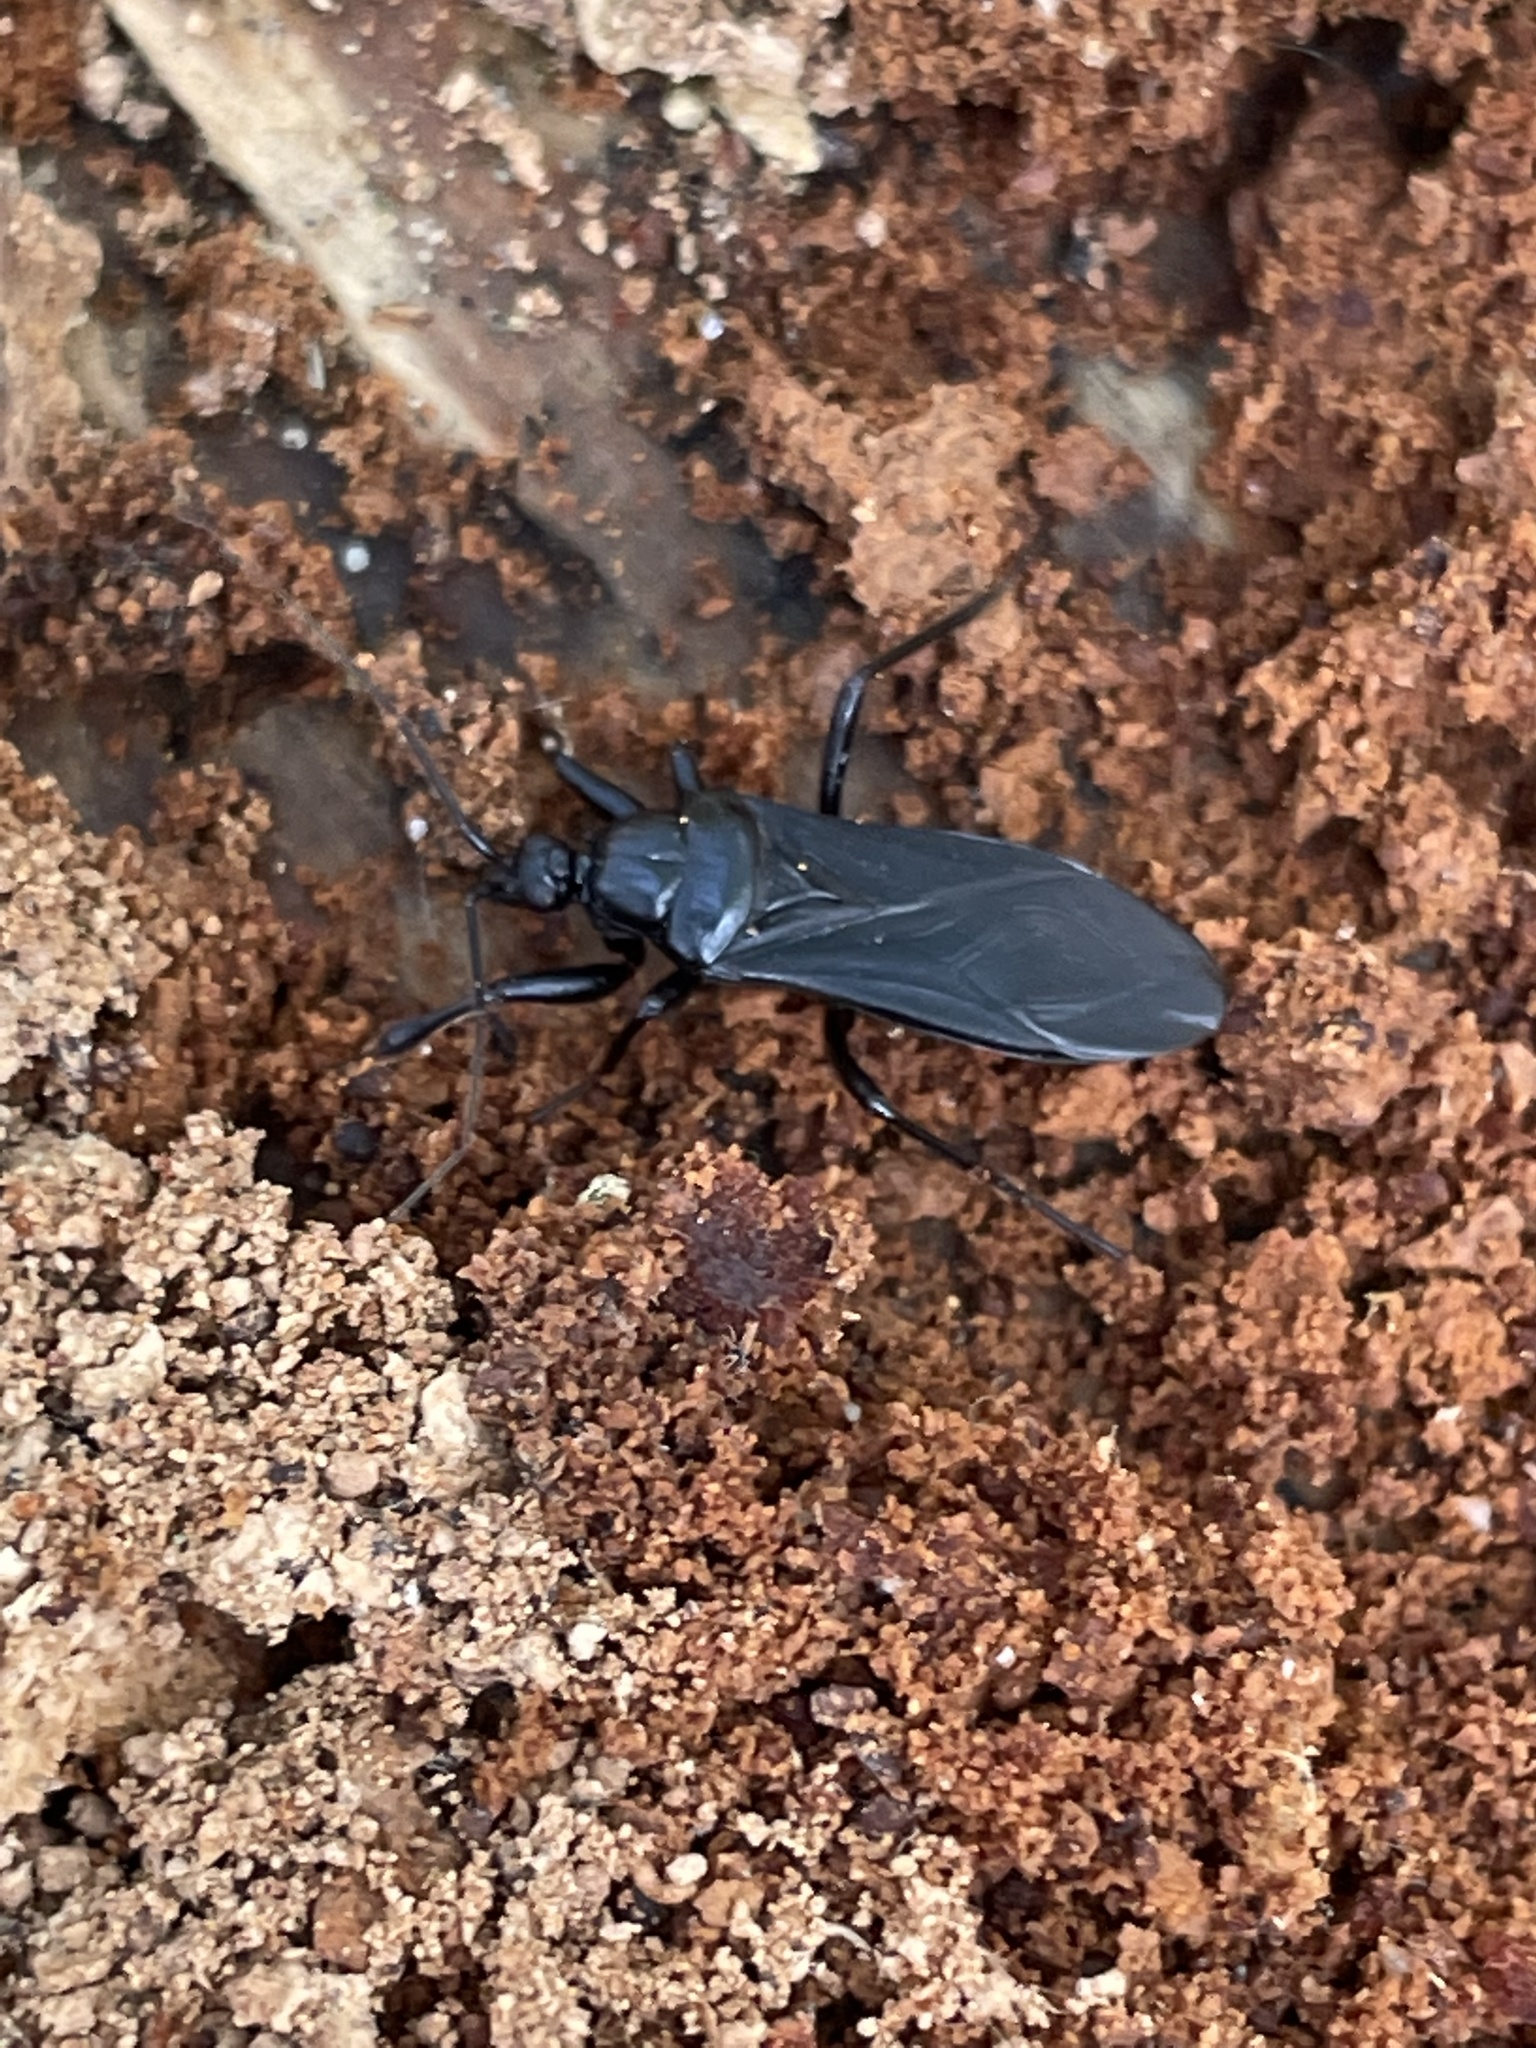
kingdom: Animalia
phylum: Arthropoda
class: Insecta
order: Hemiptera
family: Reduviidae
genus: Melanolestes
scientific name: Melanolestes picipes
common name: Assassin bug
